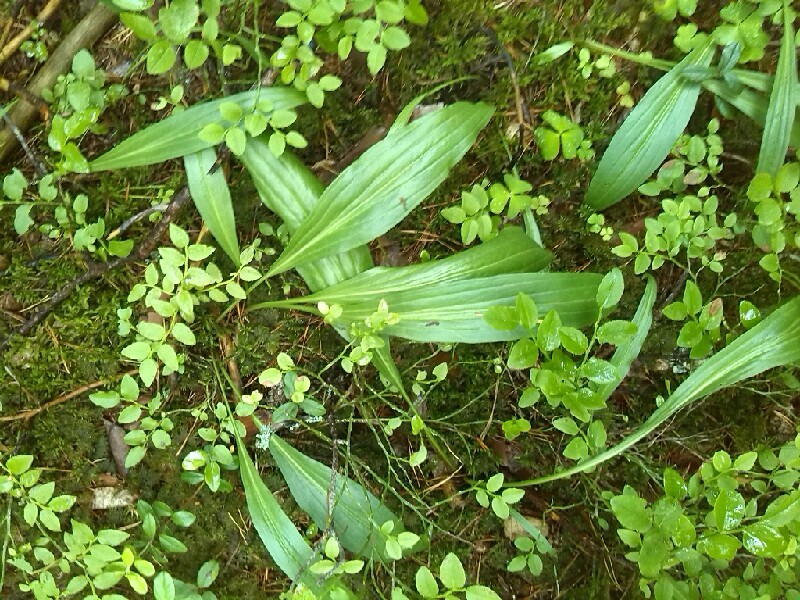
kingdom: Plantae
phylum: Tracheophyta
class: Magnoliopsida
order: Asterales
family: Asteraceae
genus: Scorzonera
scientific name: Scorzonera humilis
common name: Viper's-grass
